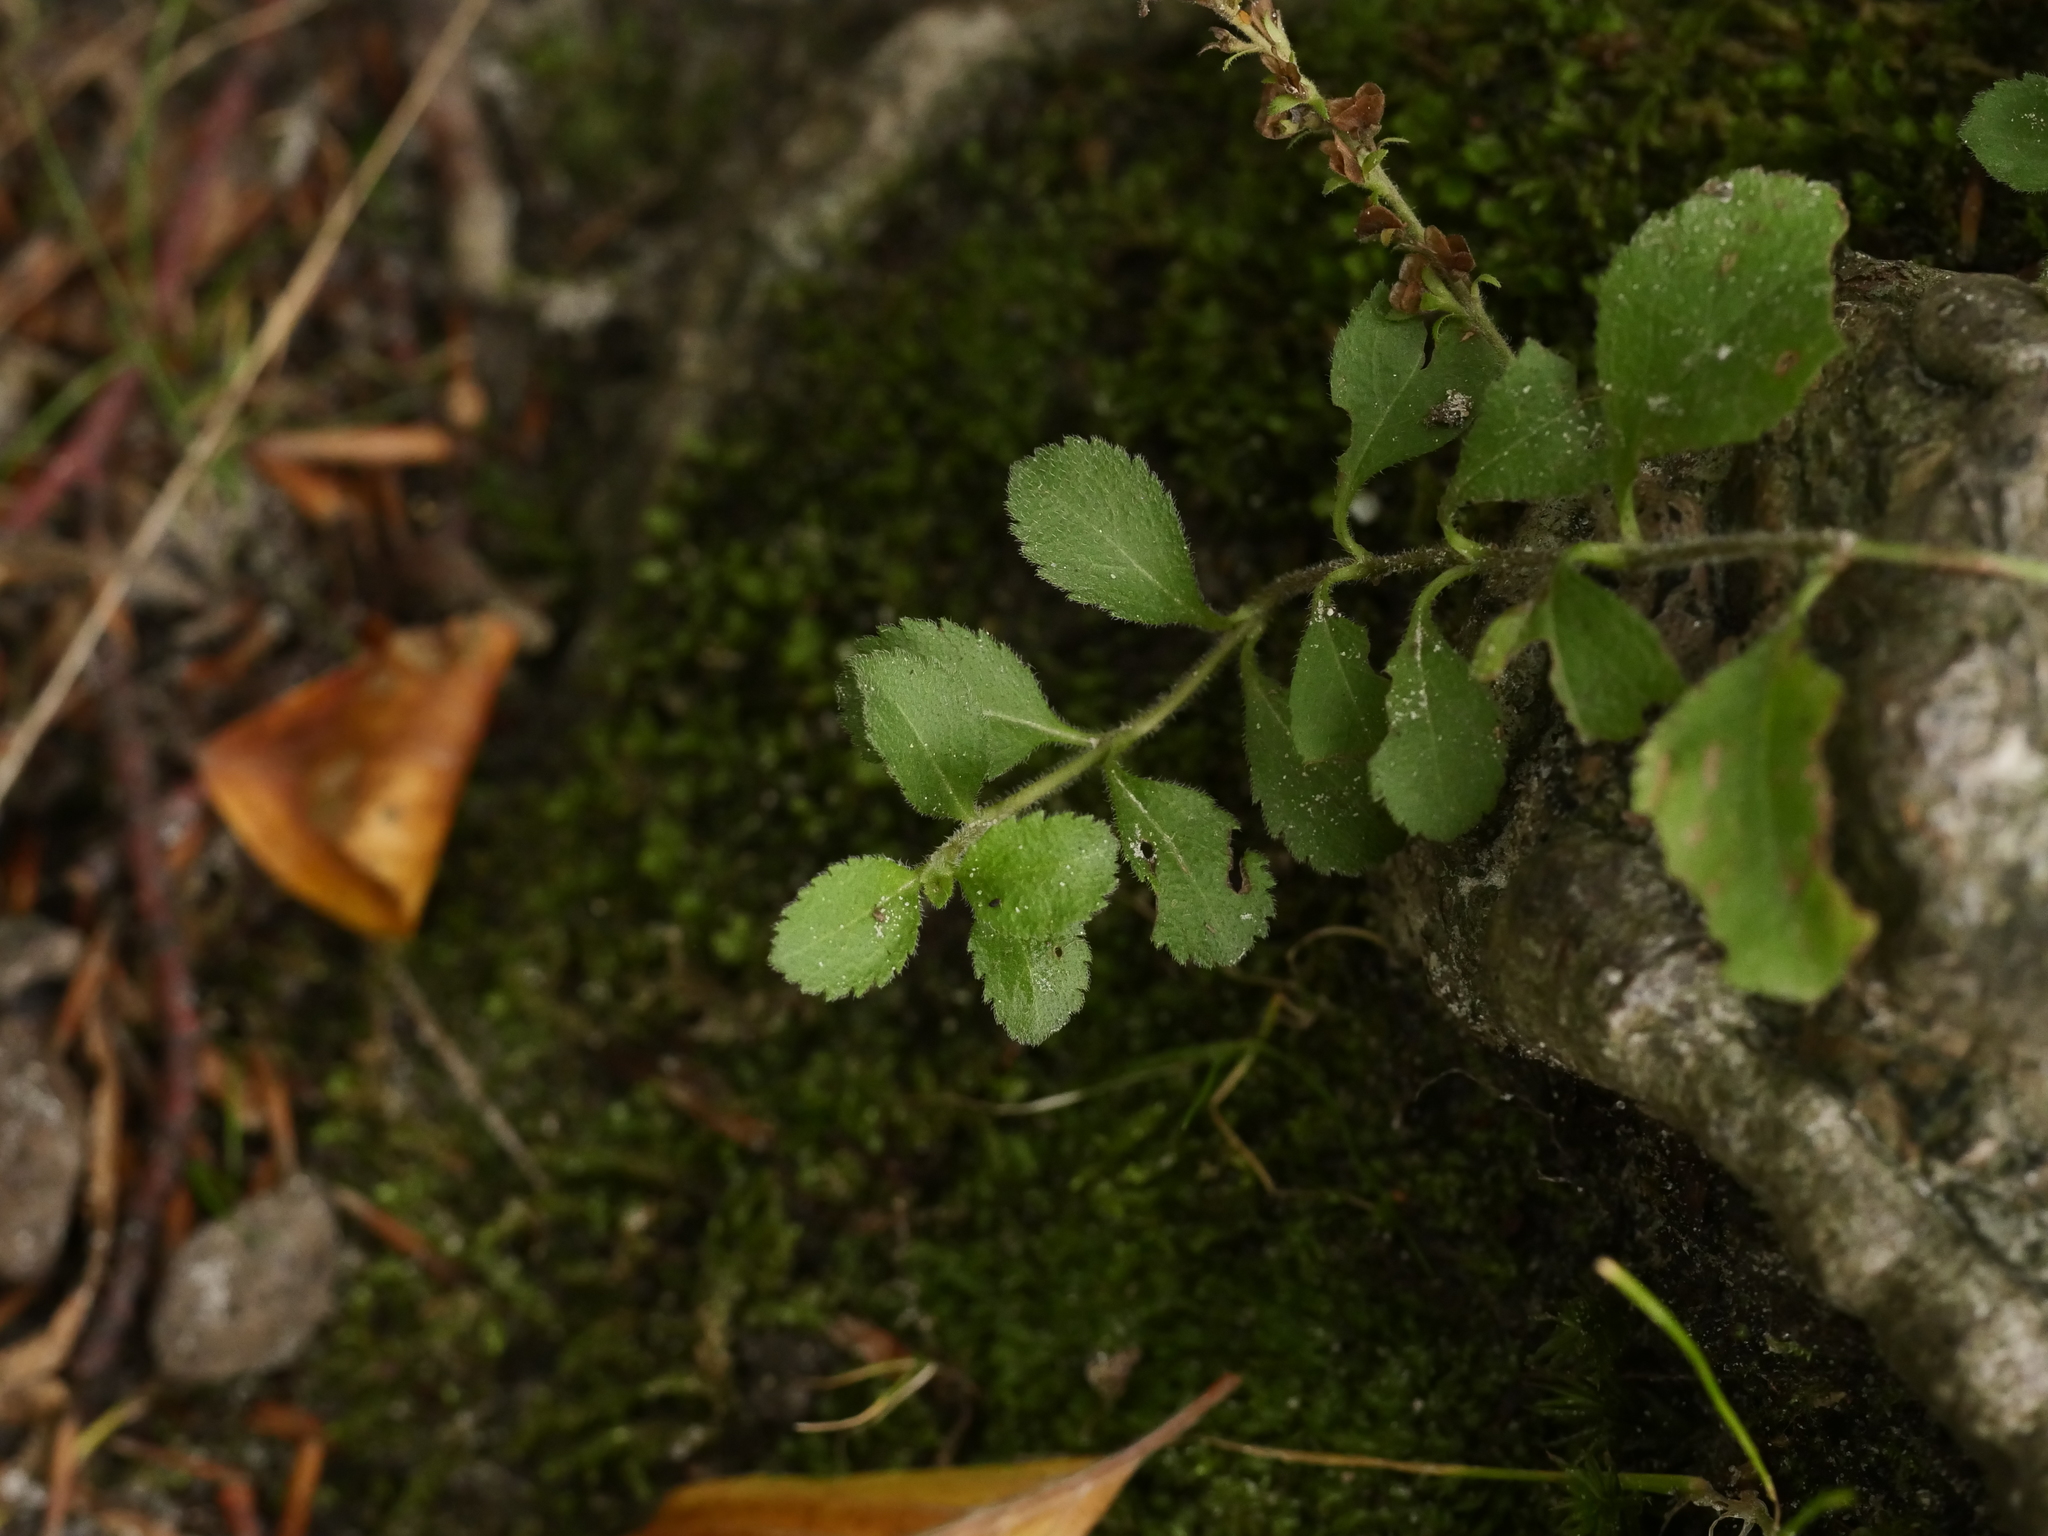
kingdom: Plantae
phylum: Tracheophyta
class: Magnoliopsida
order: Lamiales
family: Plantaginaceae
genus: Veronica
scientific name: Veronica officinalis
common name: Common speedwell
